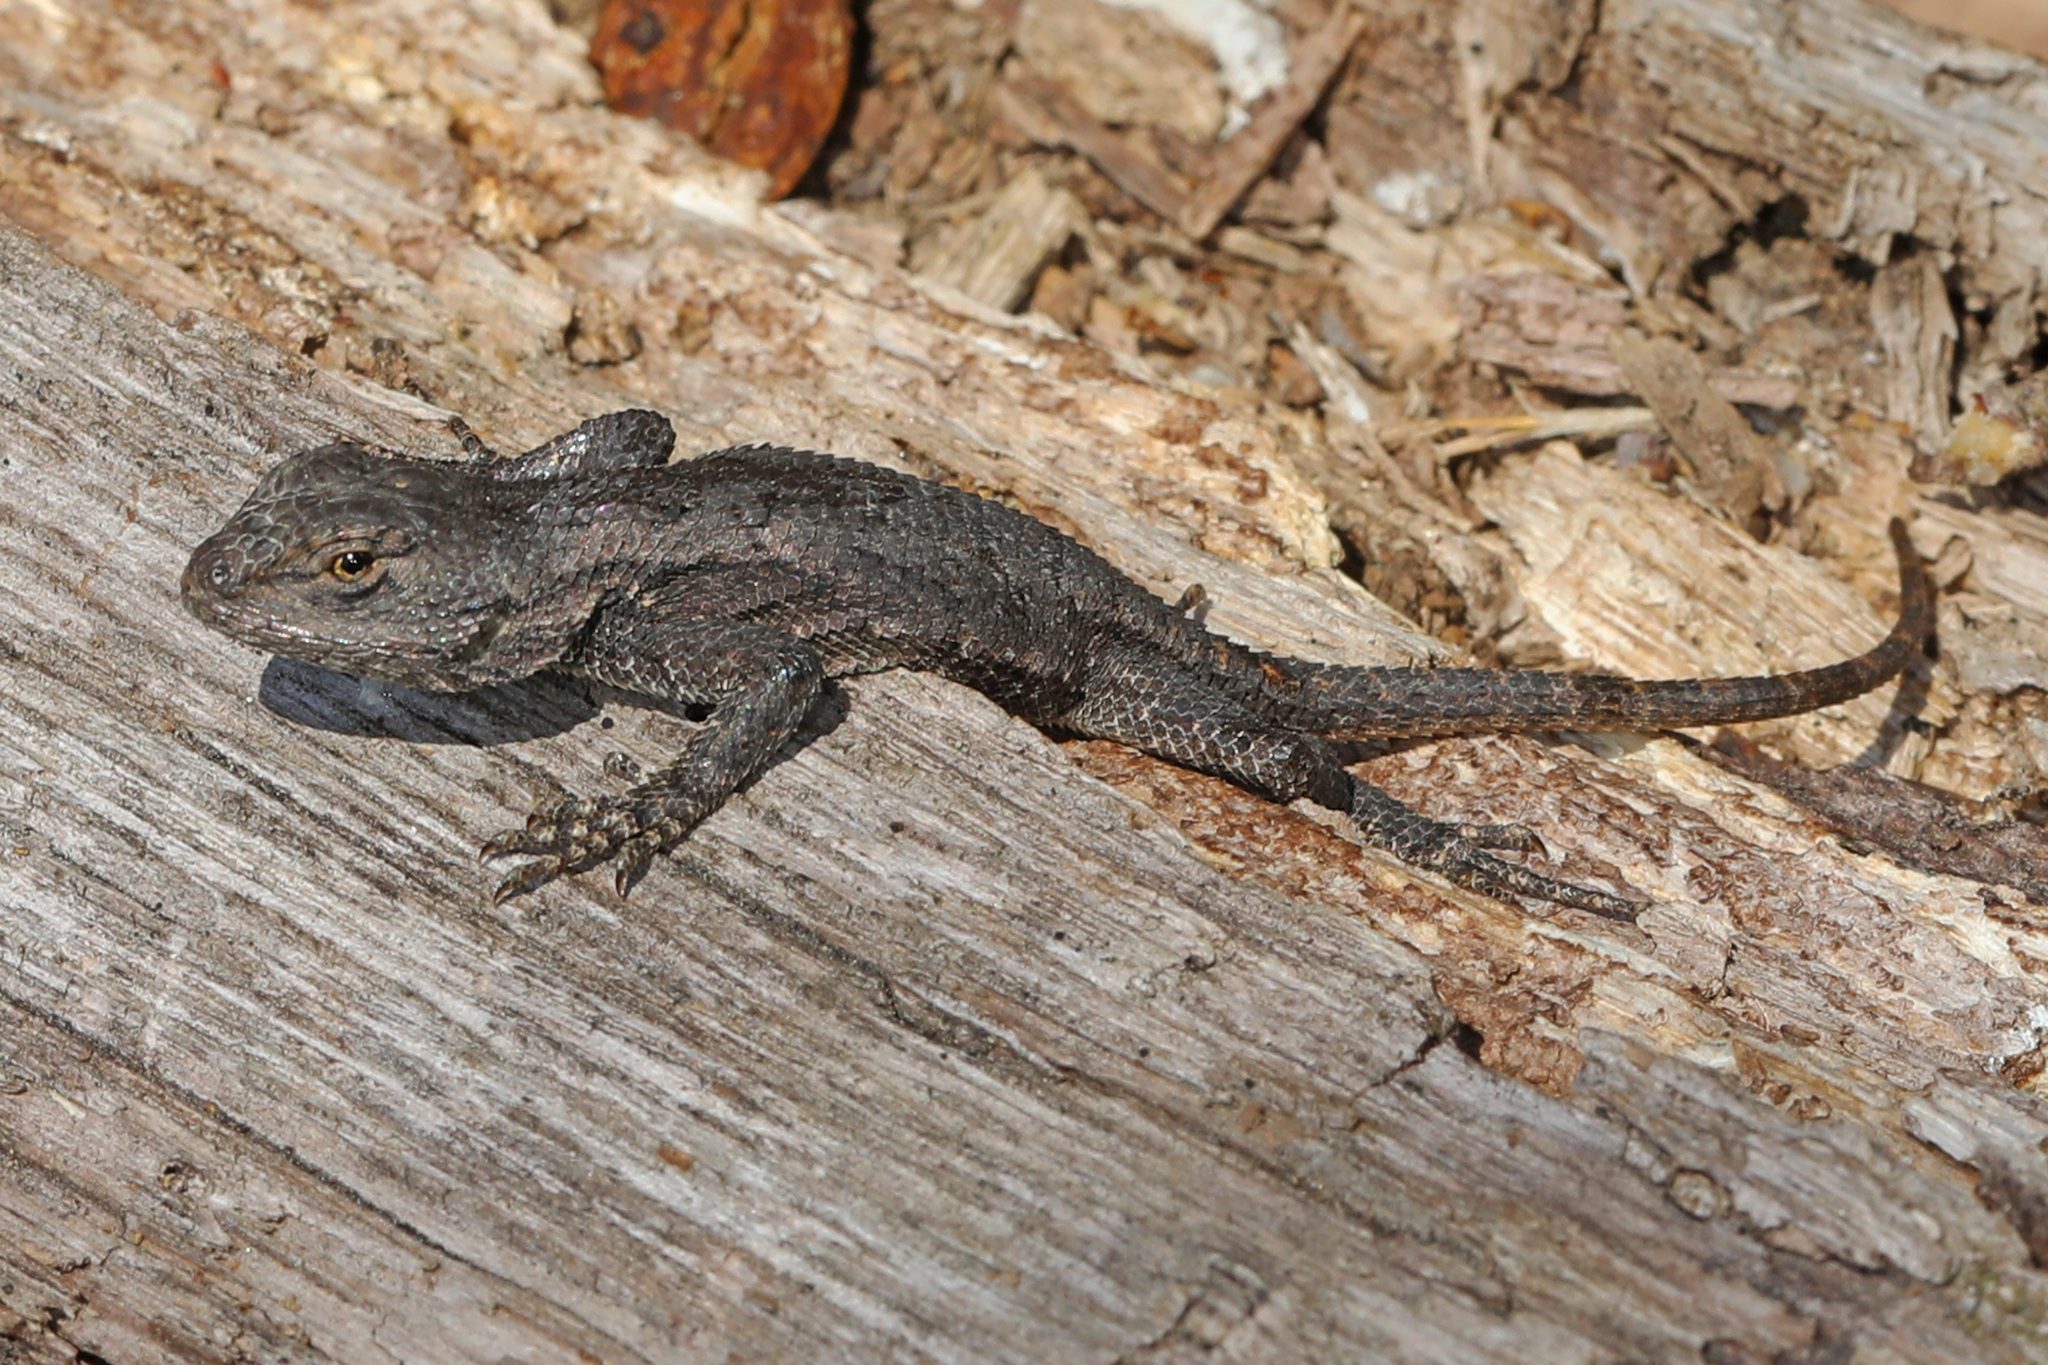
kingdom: Animalia
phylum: Chordata
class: Squamata
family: Phrynosomatidae
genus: Sceloporus
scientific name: Sceloporus undulatus
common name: Eastern fence lizard
